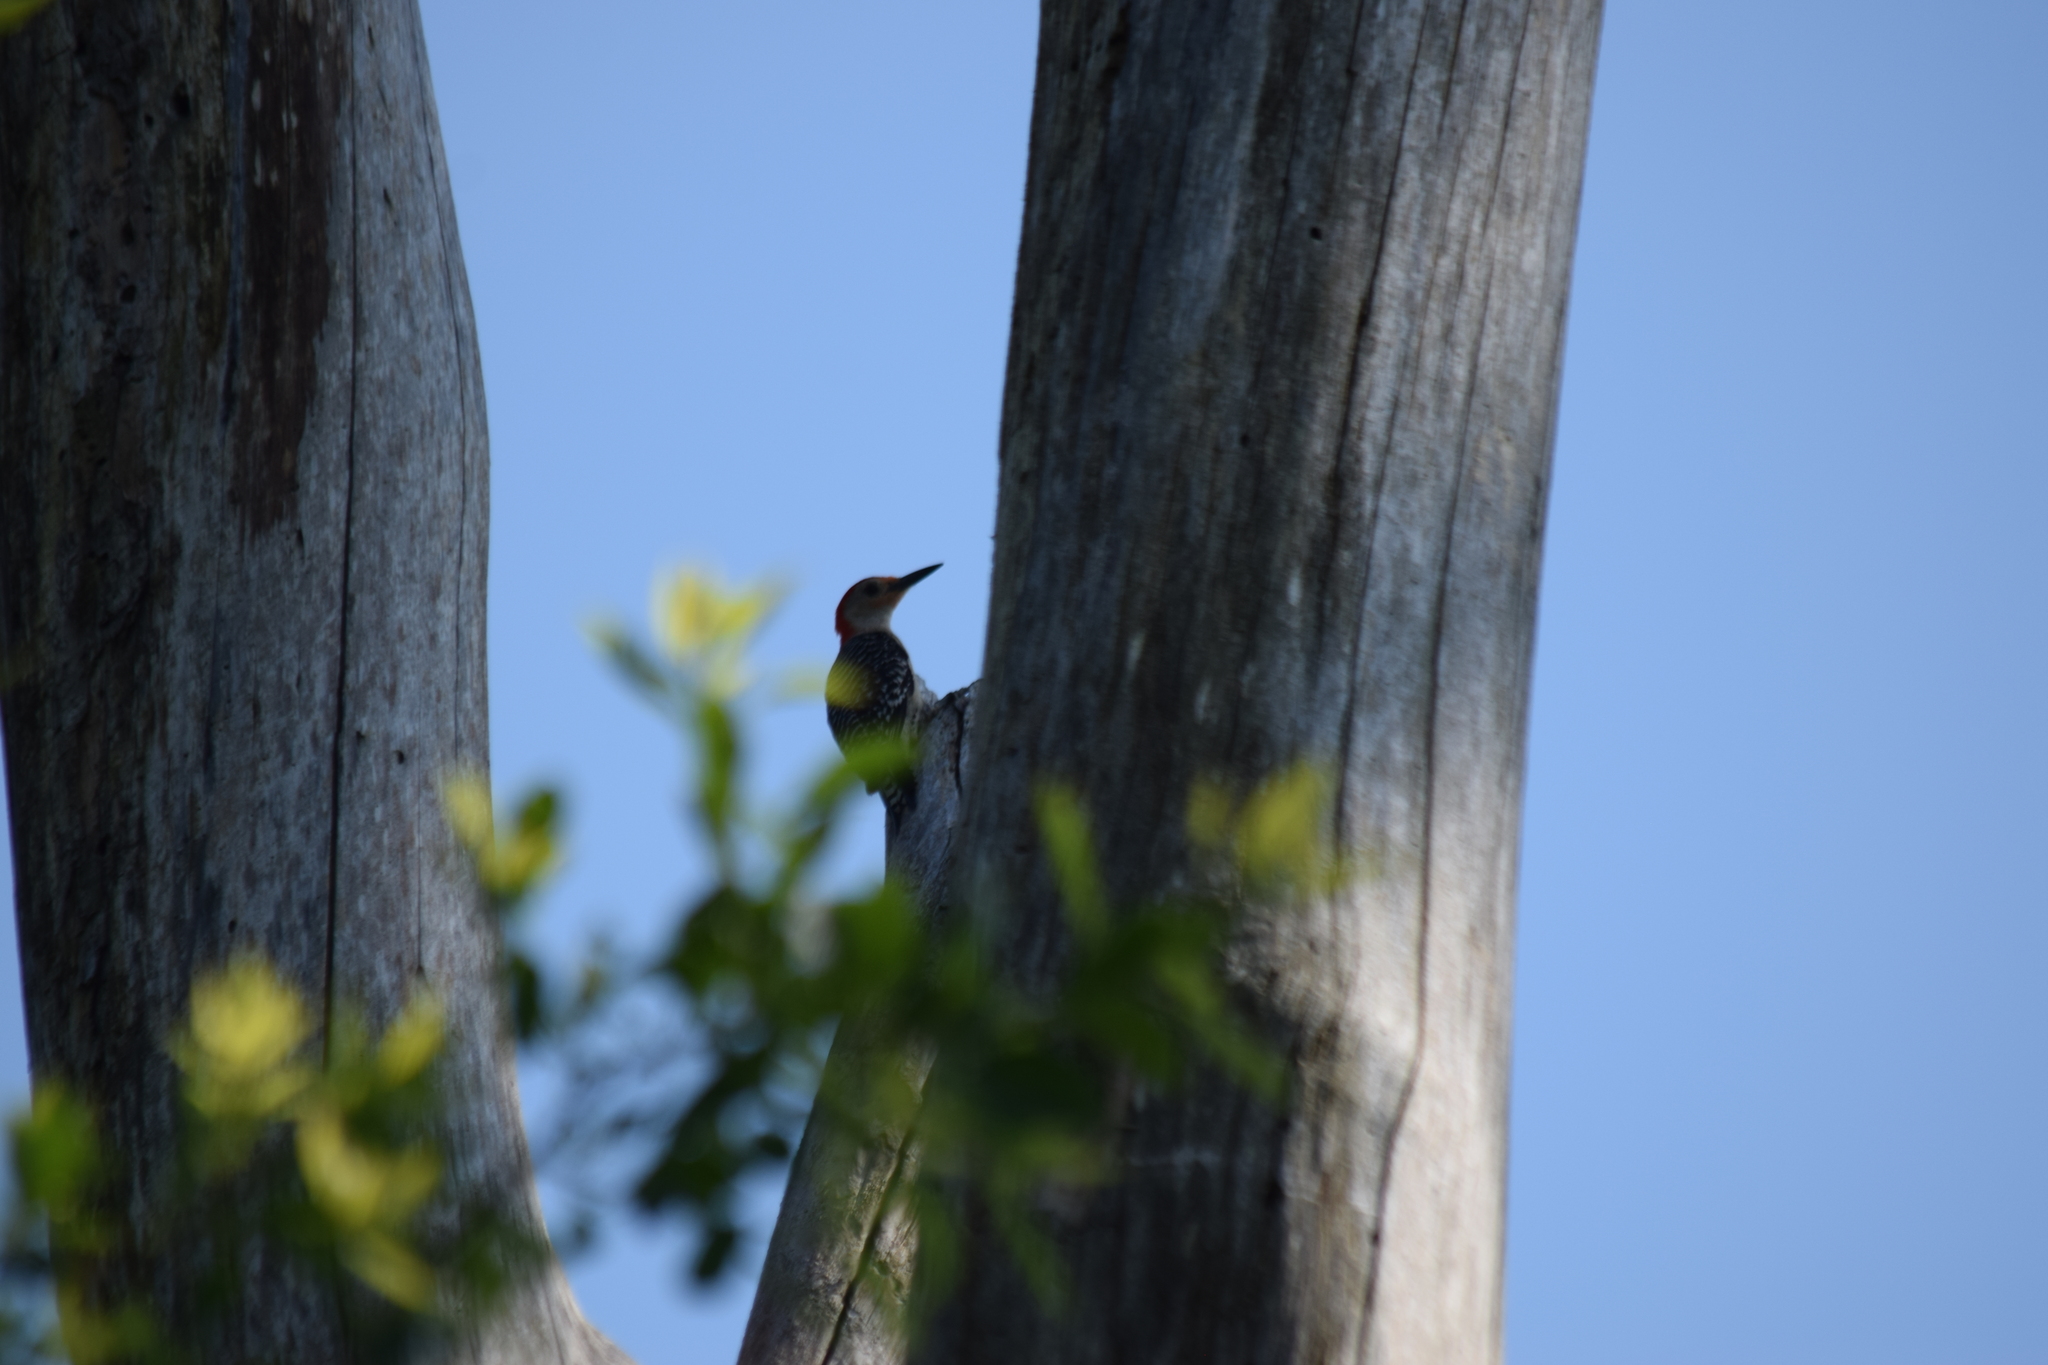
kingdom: Animalia
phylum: Chordata
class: Aves
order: Piciformes
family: Picidae
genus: Melanerpes
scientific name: Melanerpes carolinus
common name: Red-bellied woodpecker
